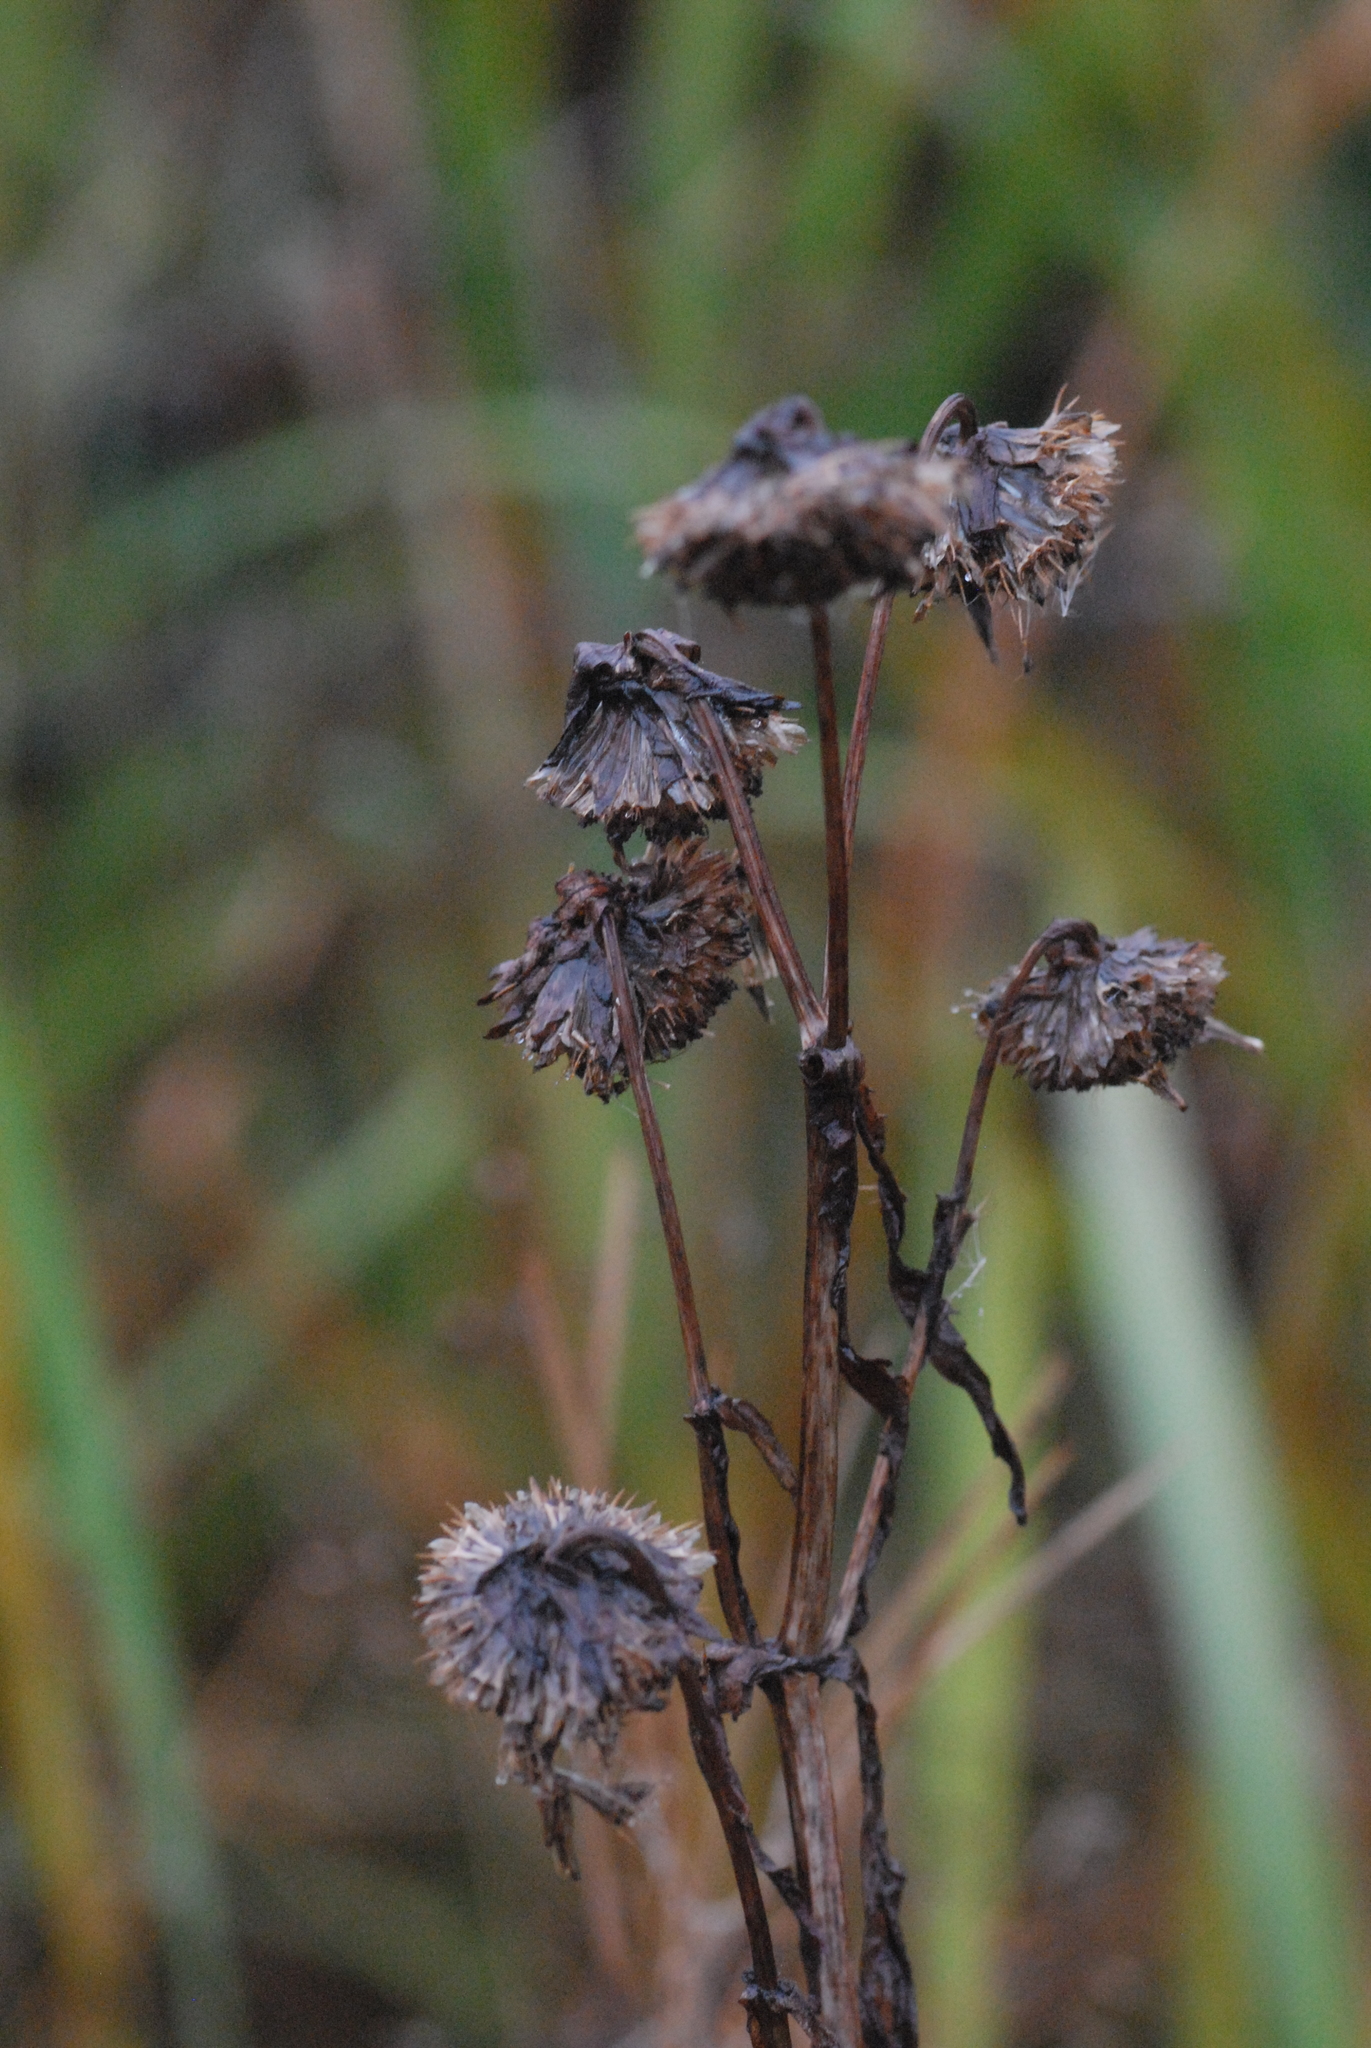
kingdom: Plantae
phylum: Tracheophyta
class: Magnoliopsida
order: Asterales
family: Asteraceae
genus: Bidens
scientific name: Bidens cernua
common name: Nodding bur-marigold
